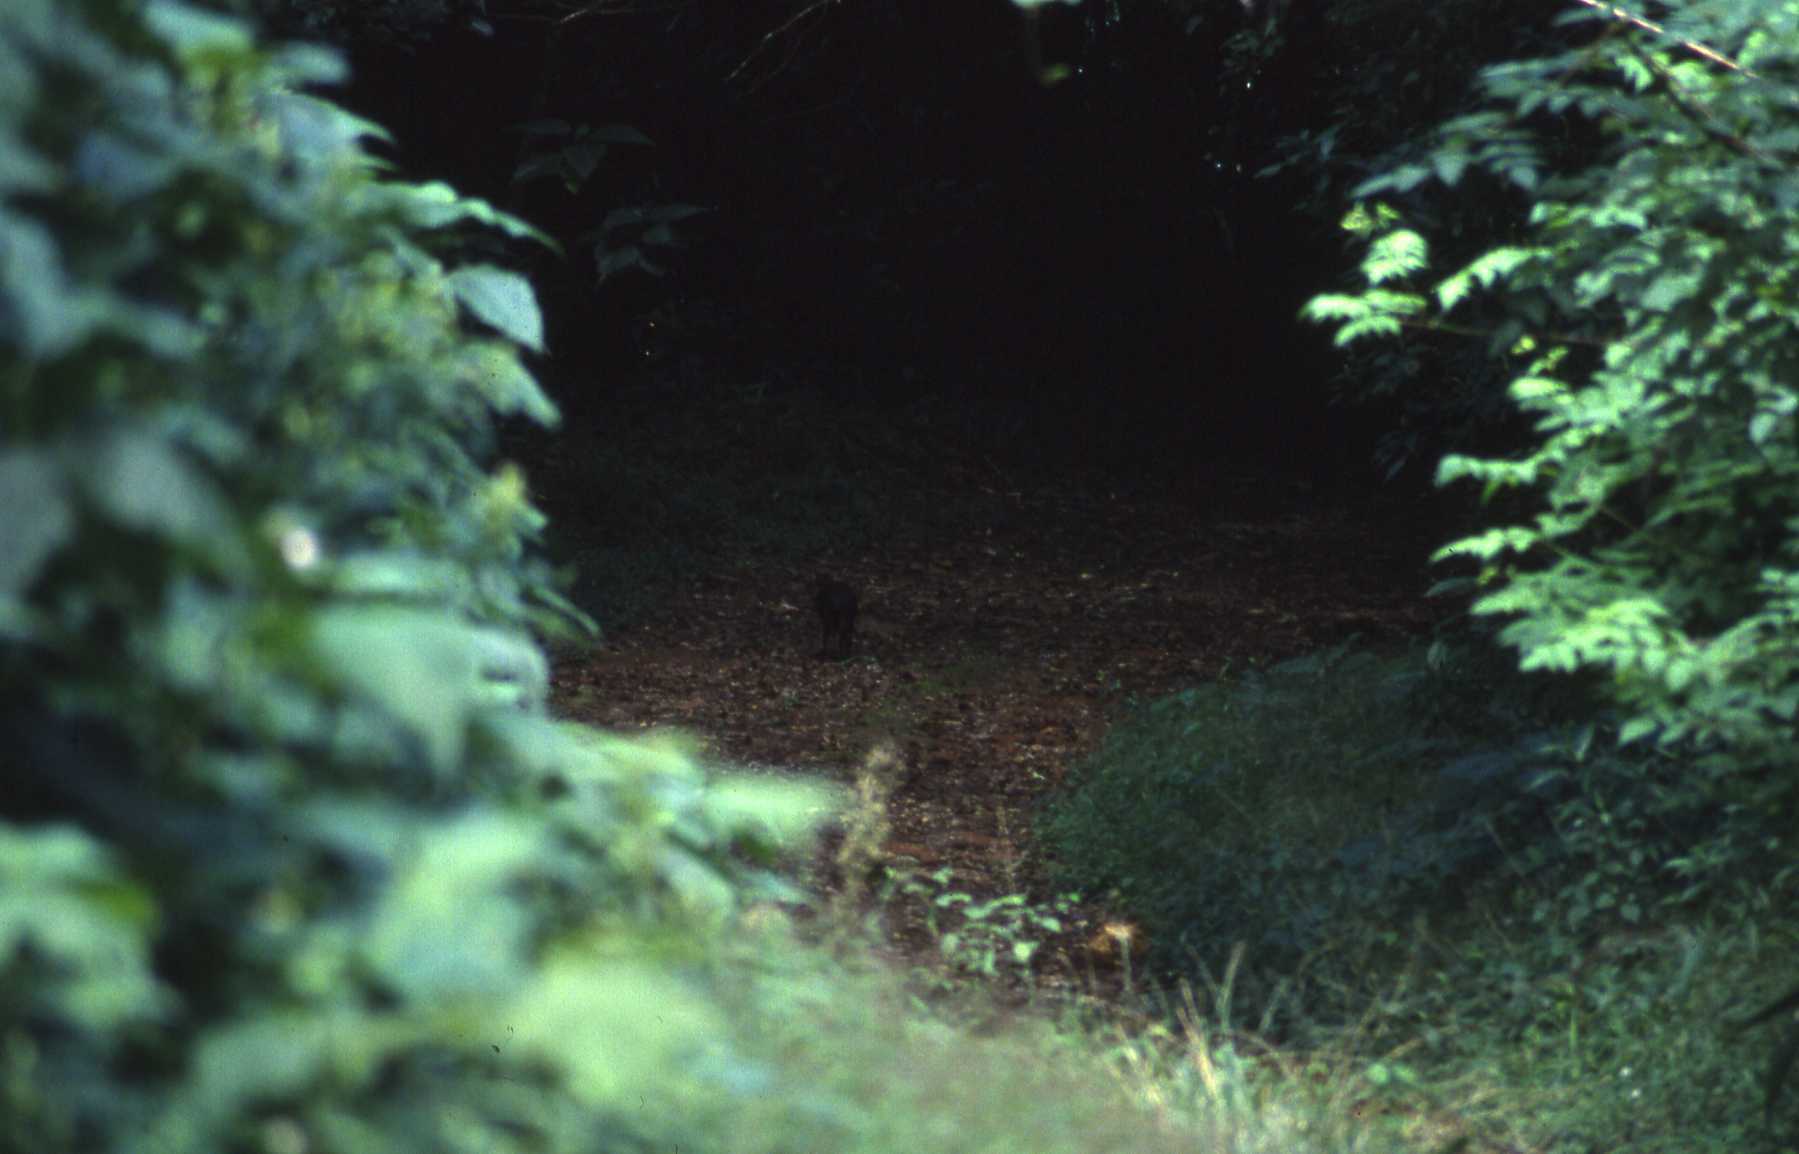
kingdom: Animalia
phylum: Chordata
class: Mammalia
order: Artiodactyla
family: Bovidae
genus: Philantomba
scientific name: Philantomba monticola
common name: Blue duiker
